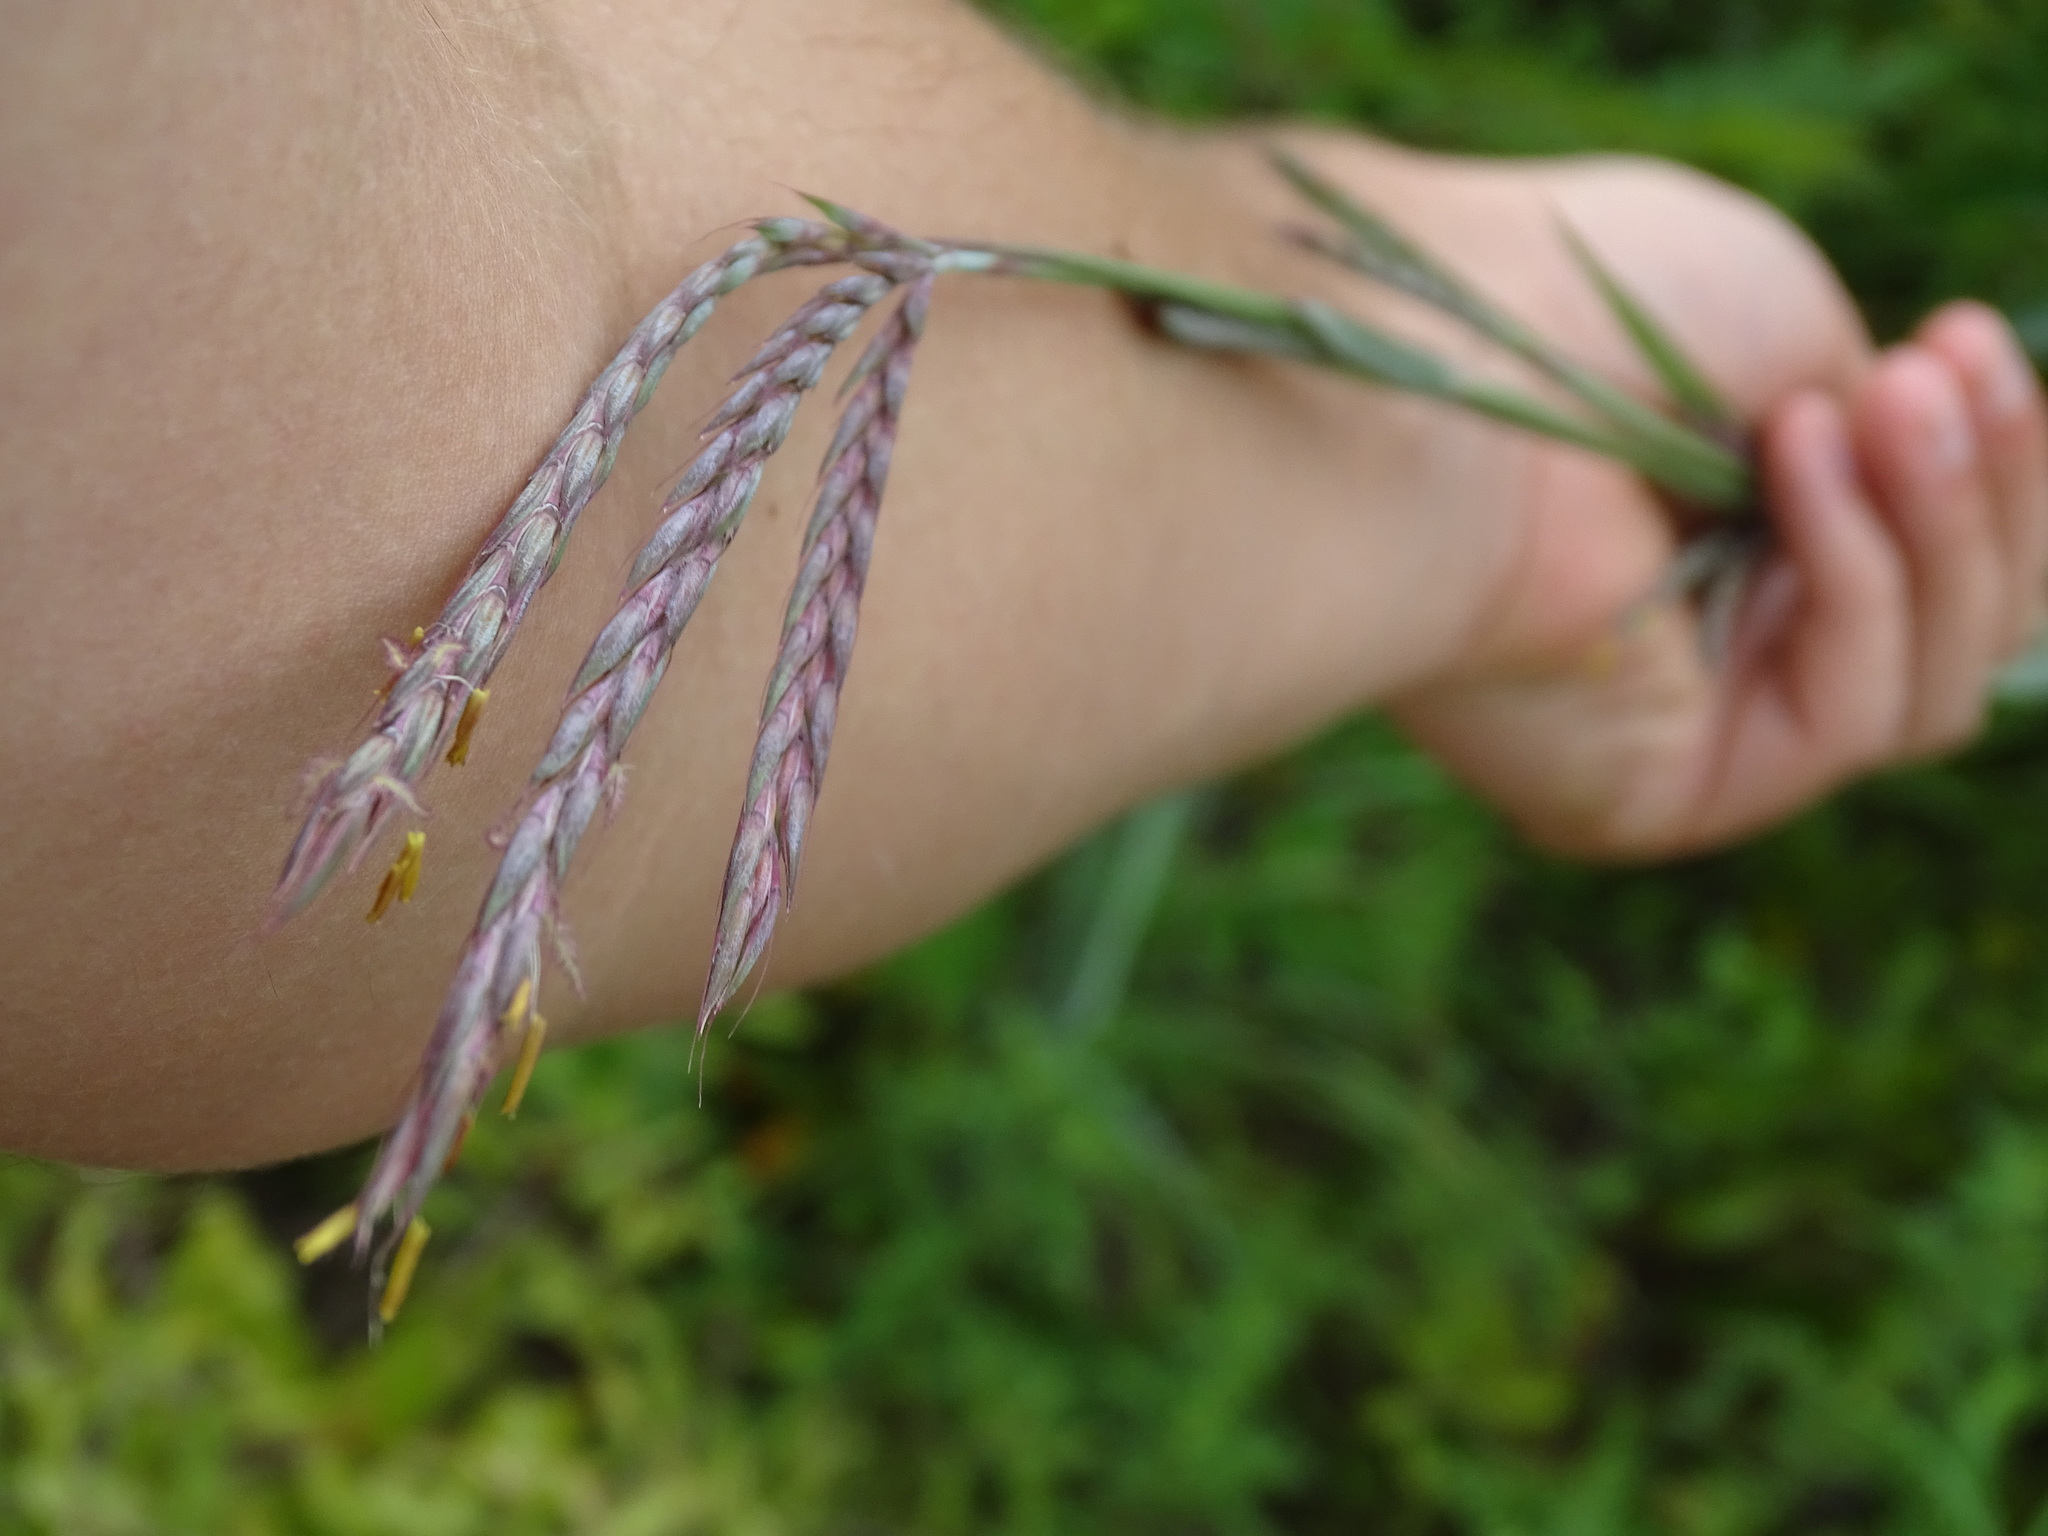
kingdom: Plantae
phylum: Tracheophyta
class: Liliopsida
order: Poales
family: Poaceae
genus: Andropogon
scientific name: Andropogon gerardi
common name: Big bluestem
